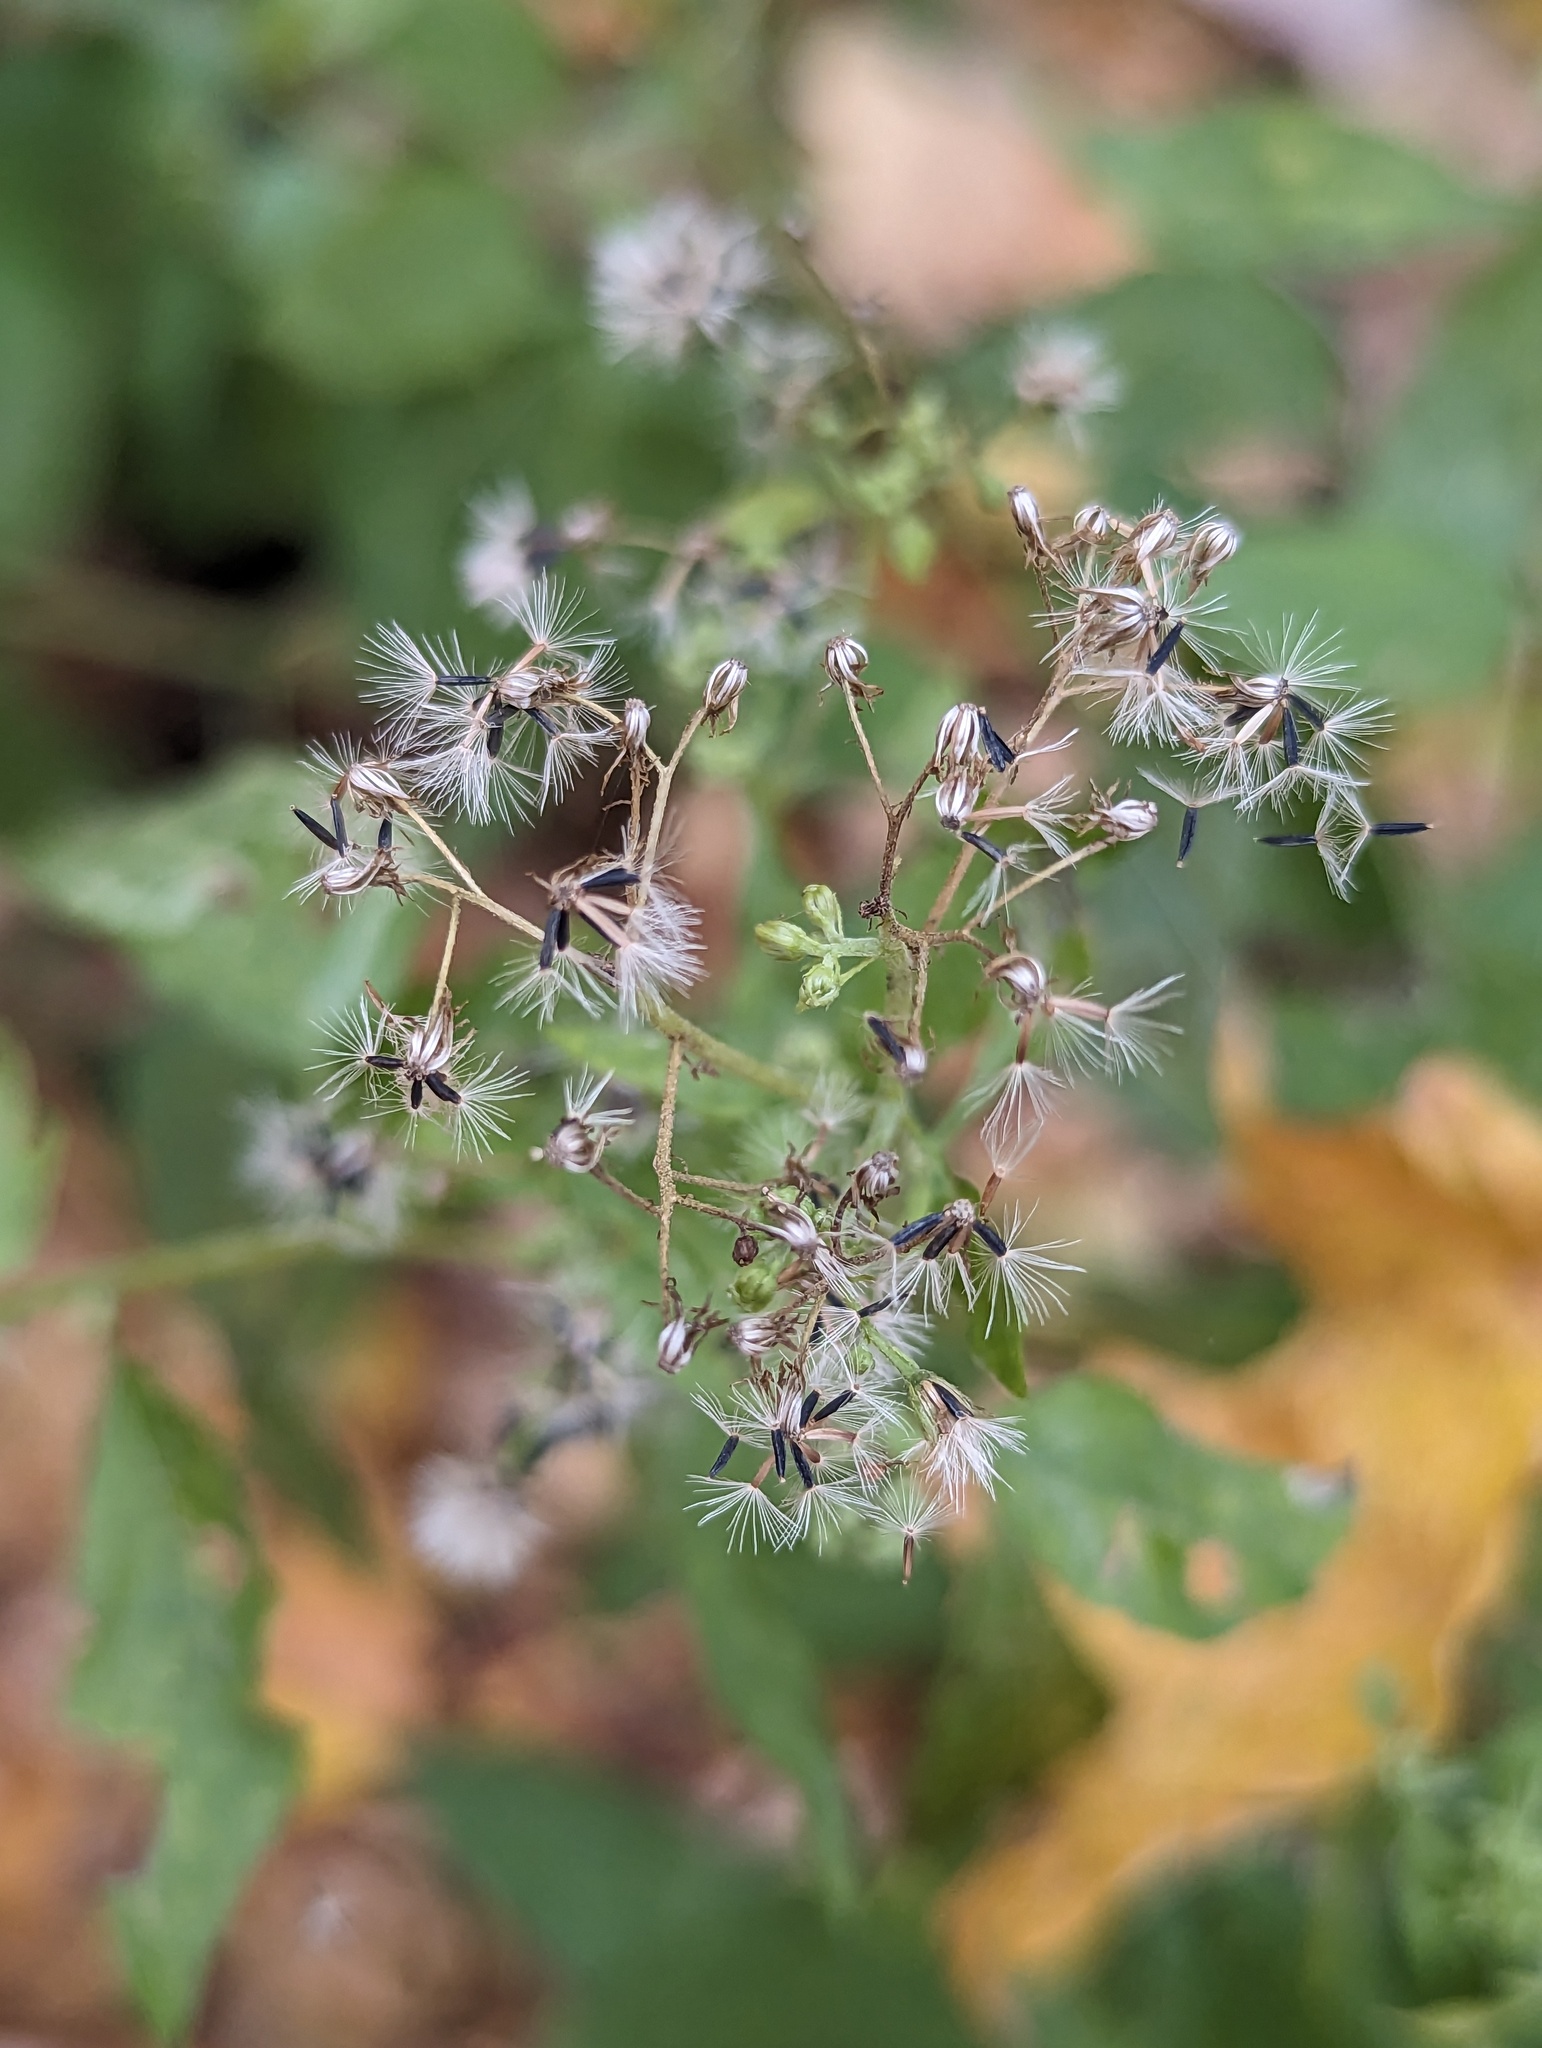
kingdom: Plantae
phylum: Tracheophyta
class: Magnoliopsida
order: Asterales
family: Asteraceae
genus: Ageratina
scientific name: Ageratina altissima
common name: White snakeroot
